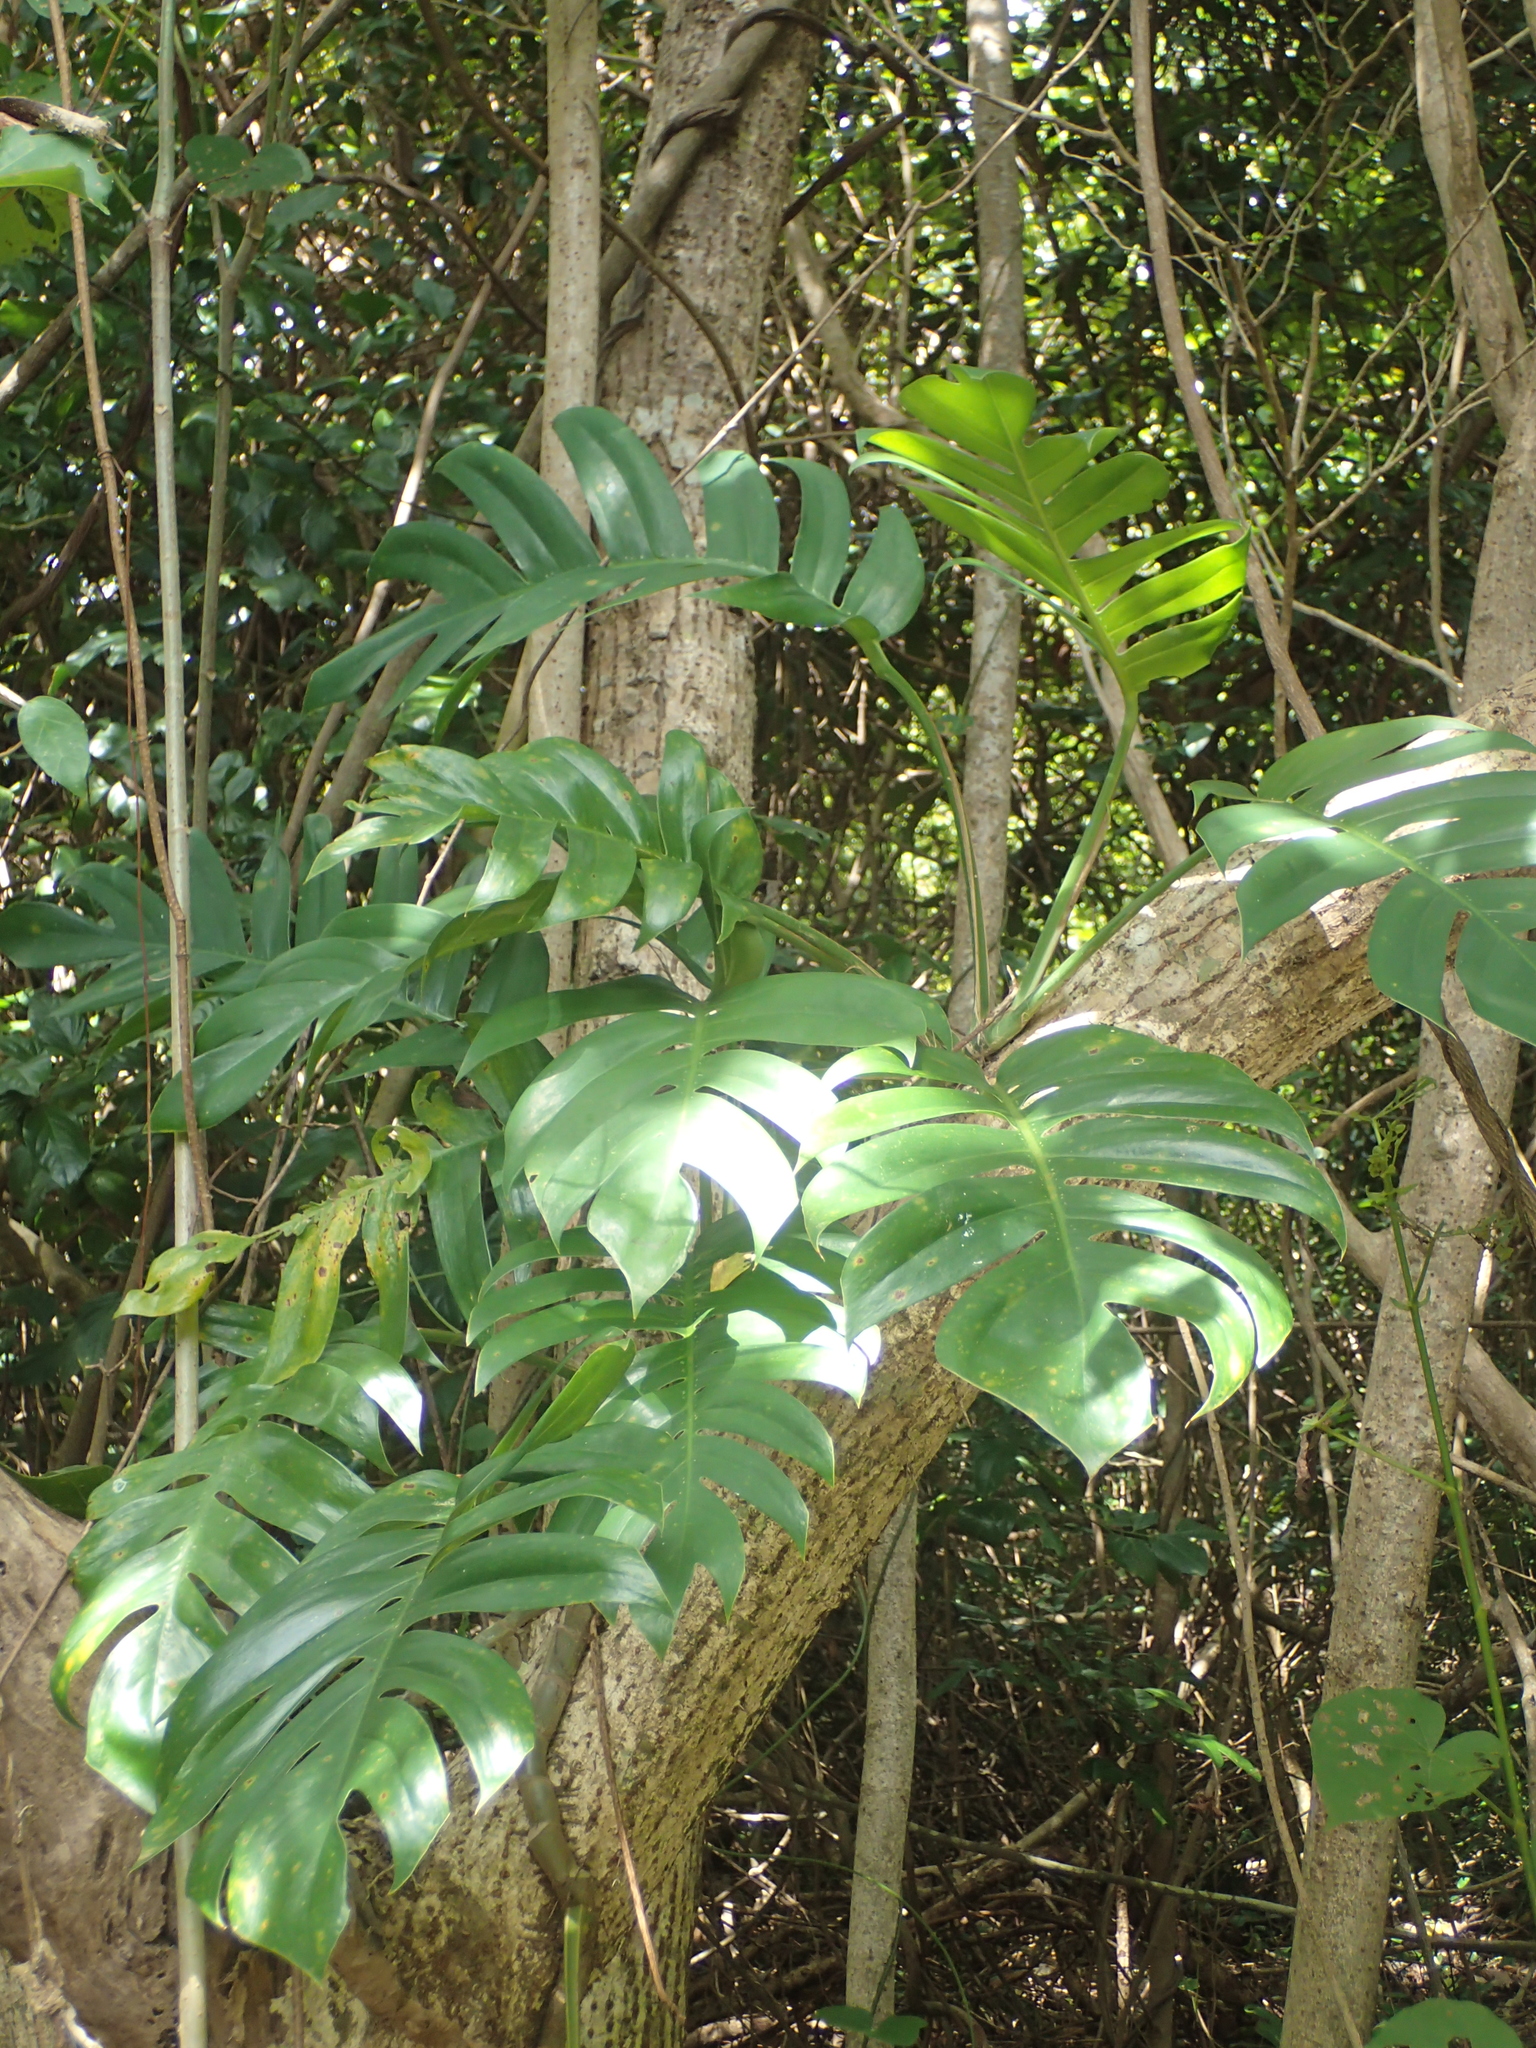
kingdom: Plantae
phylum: Tracheophyta
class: Liliopsida
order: Alismatales
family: Araceae
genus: Epipremnum
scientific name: Epipremnum pinnatum
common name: Centipede tongavine
